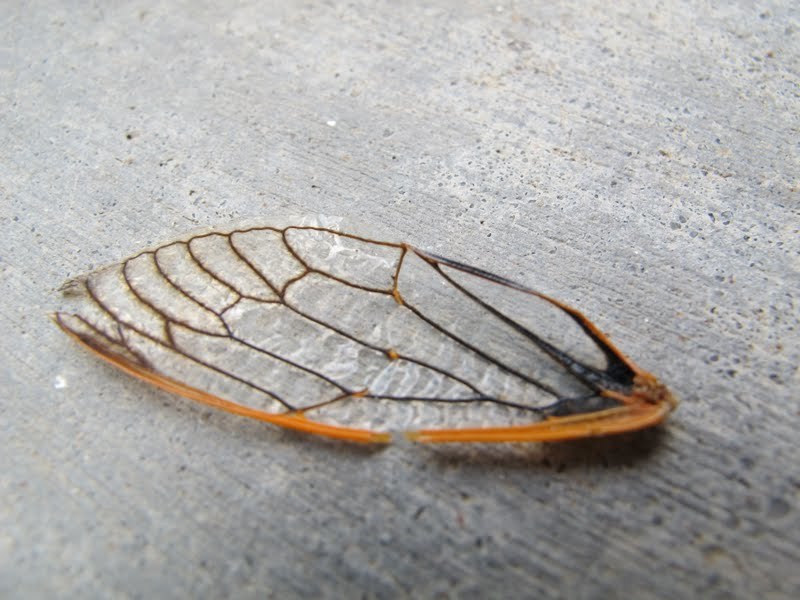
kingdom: Animalia
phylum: Arthropoda
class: Insecta
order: Hemiptera
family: Cicadidae
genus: Okanagana
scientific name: Okanagana magnifica
